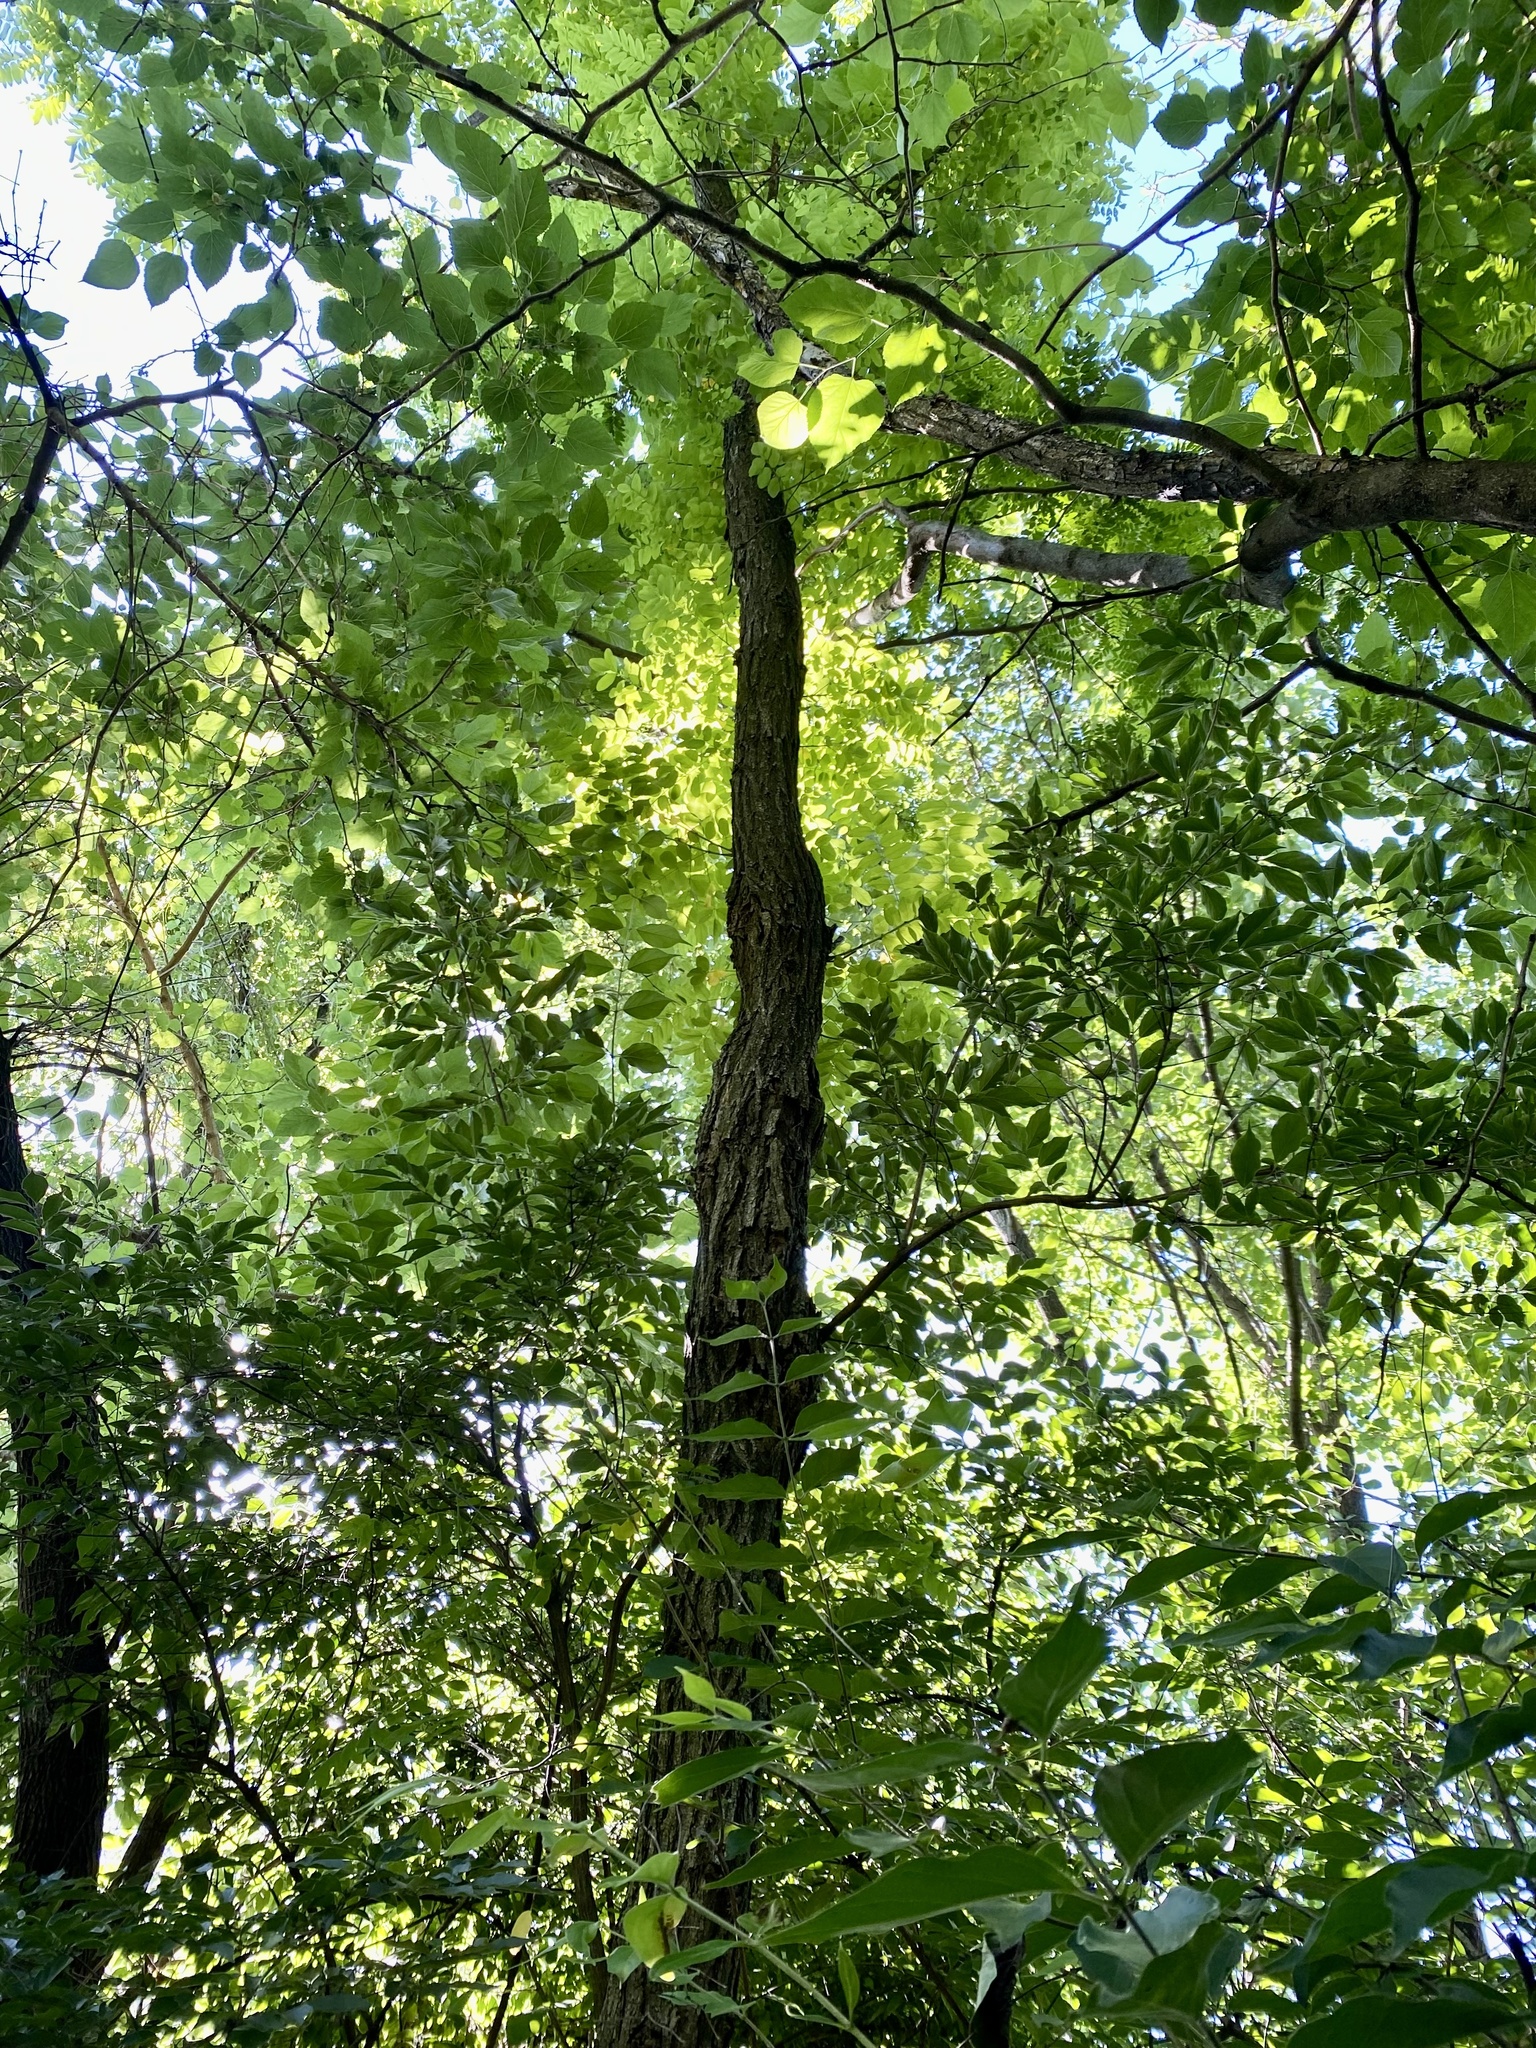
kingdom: Plantae
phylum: Tracheophyta
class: Magnoliopsida
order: Fabales
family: Fabaceae
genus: Robinia
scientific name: Robinia pseudoacacia
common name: Black locust
